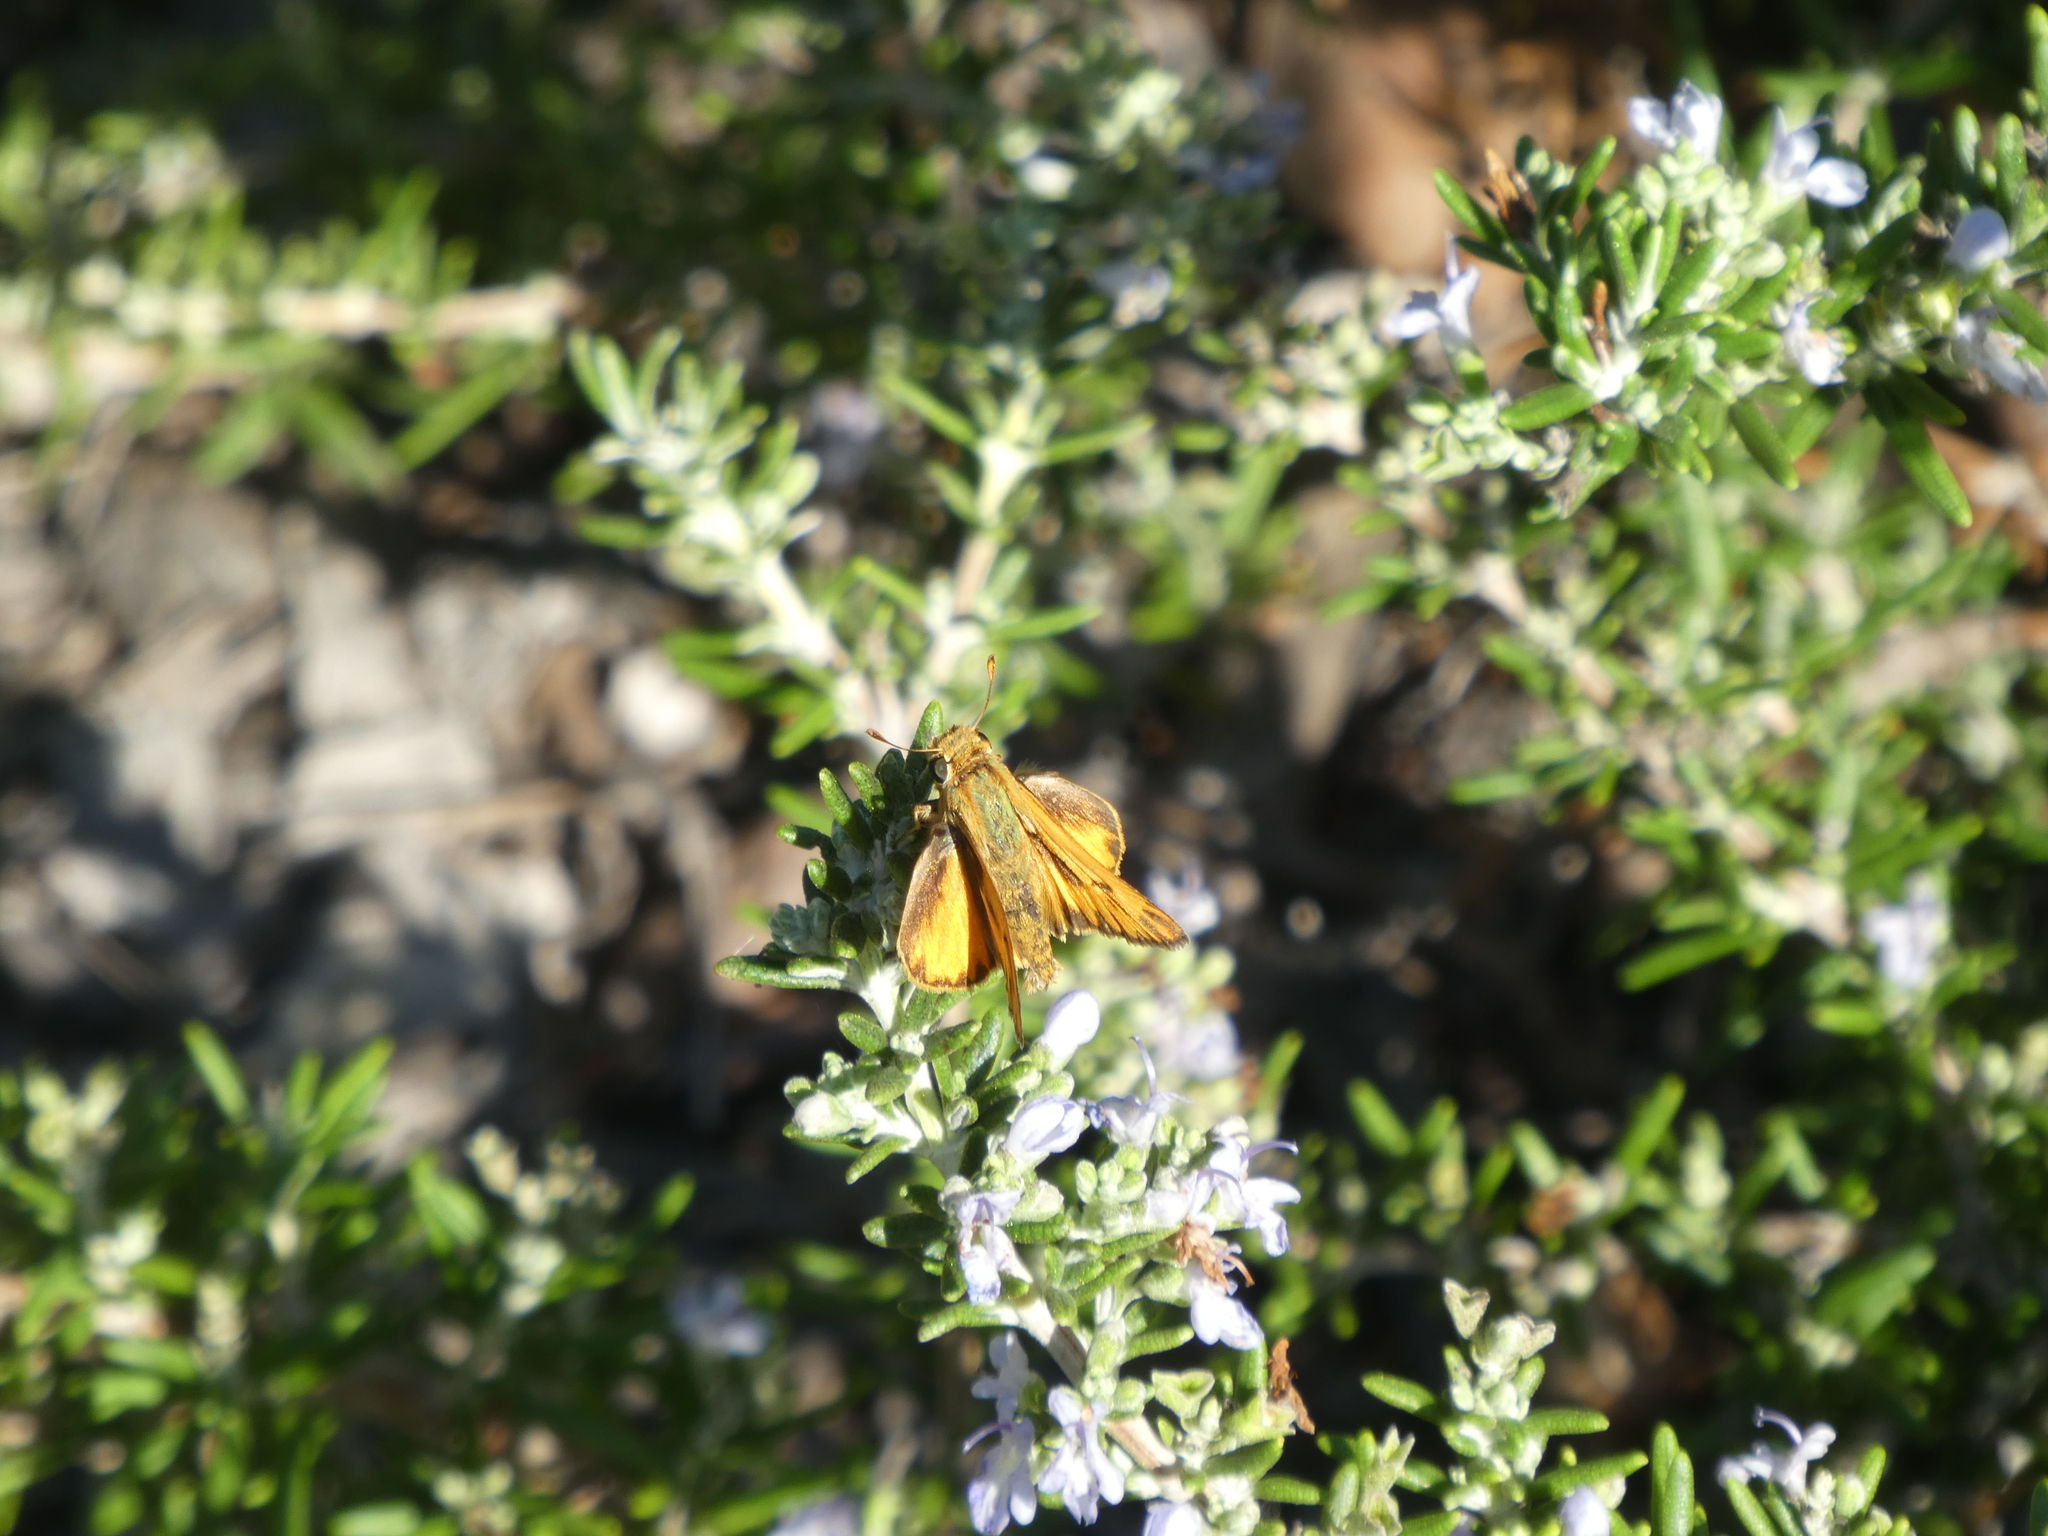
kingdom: Animalia
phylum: Arthropoda
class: Insecta
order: Lepidoptera
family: Hesperiidae
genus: Hylephila
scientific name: Hylephila phyleus
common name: Fiery skipper
